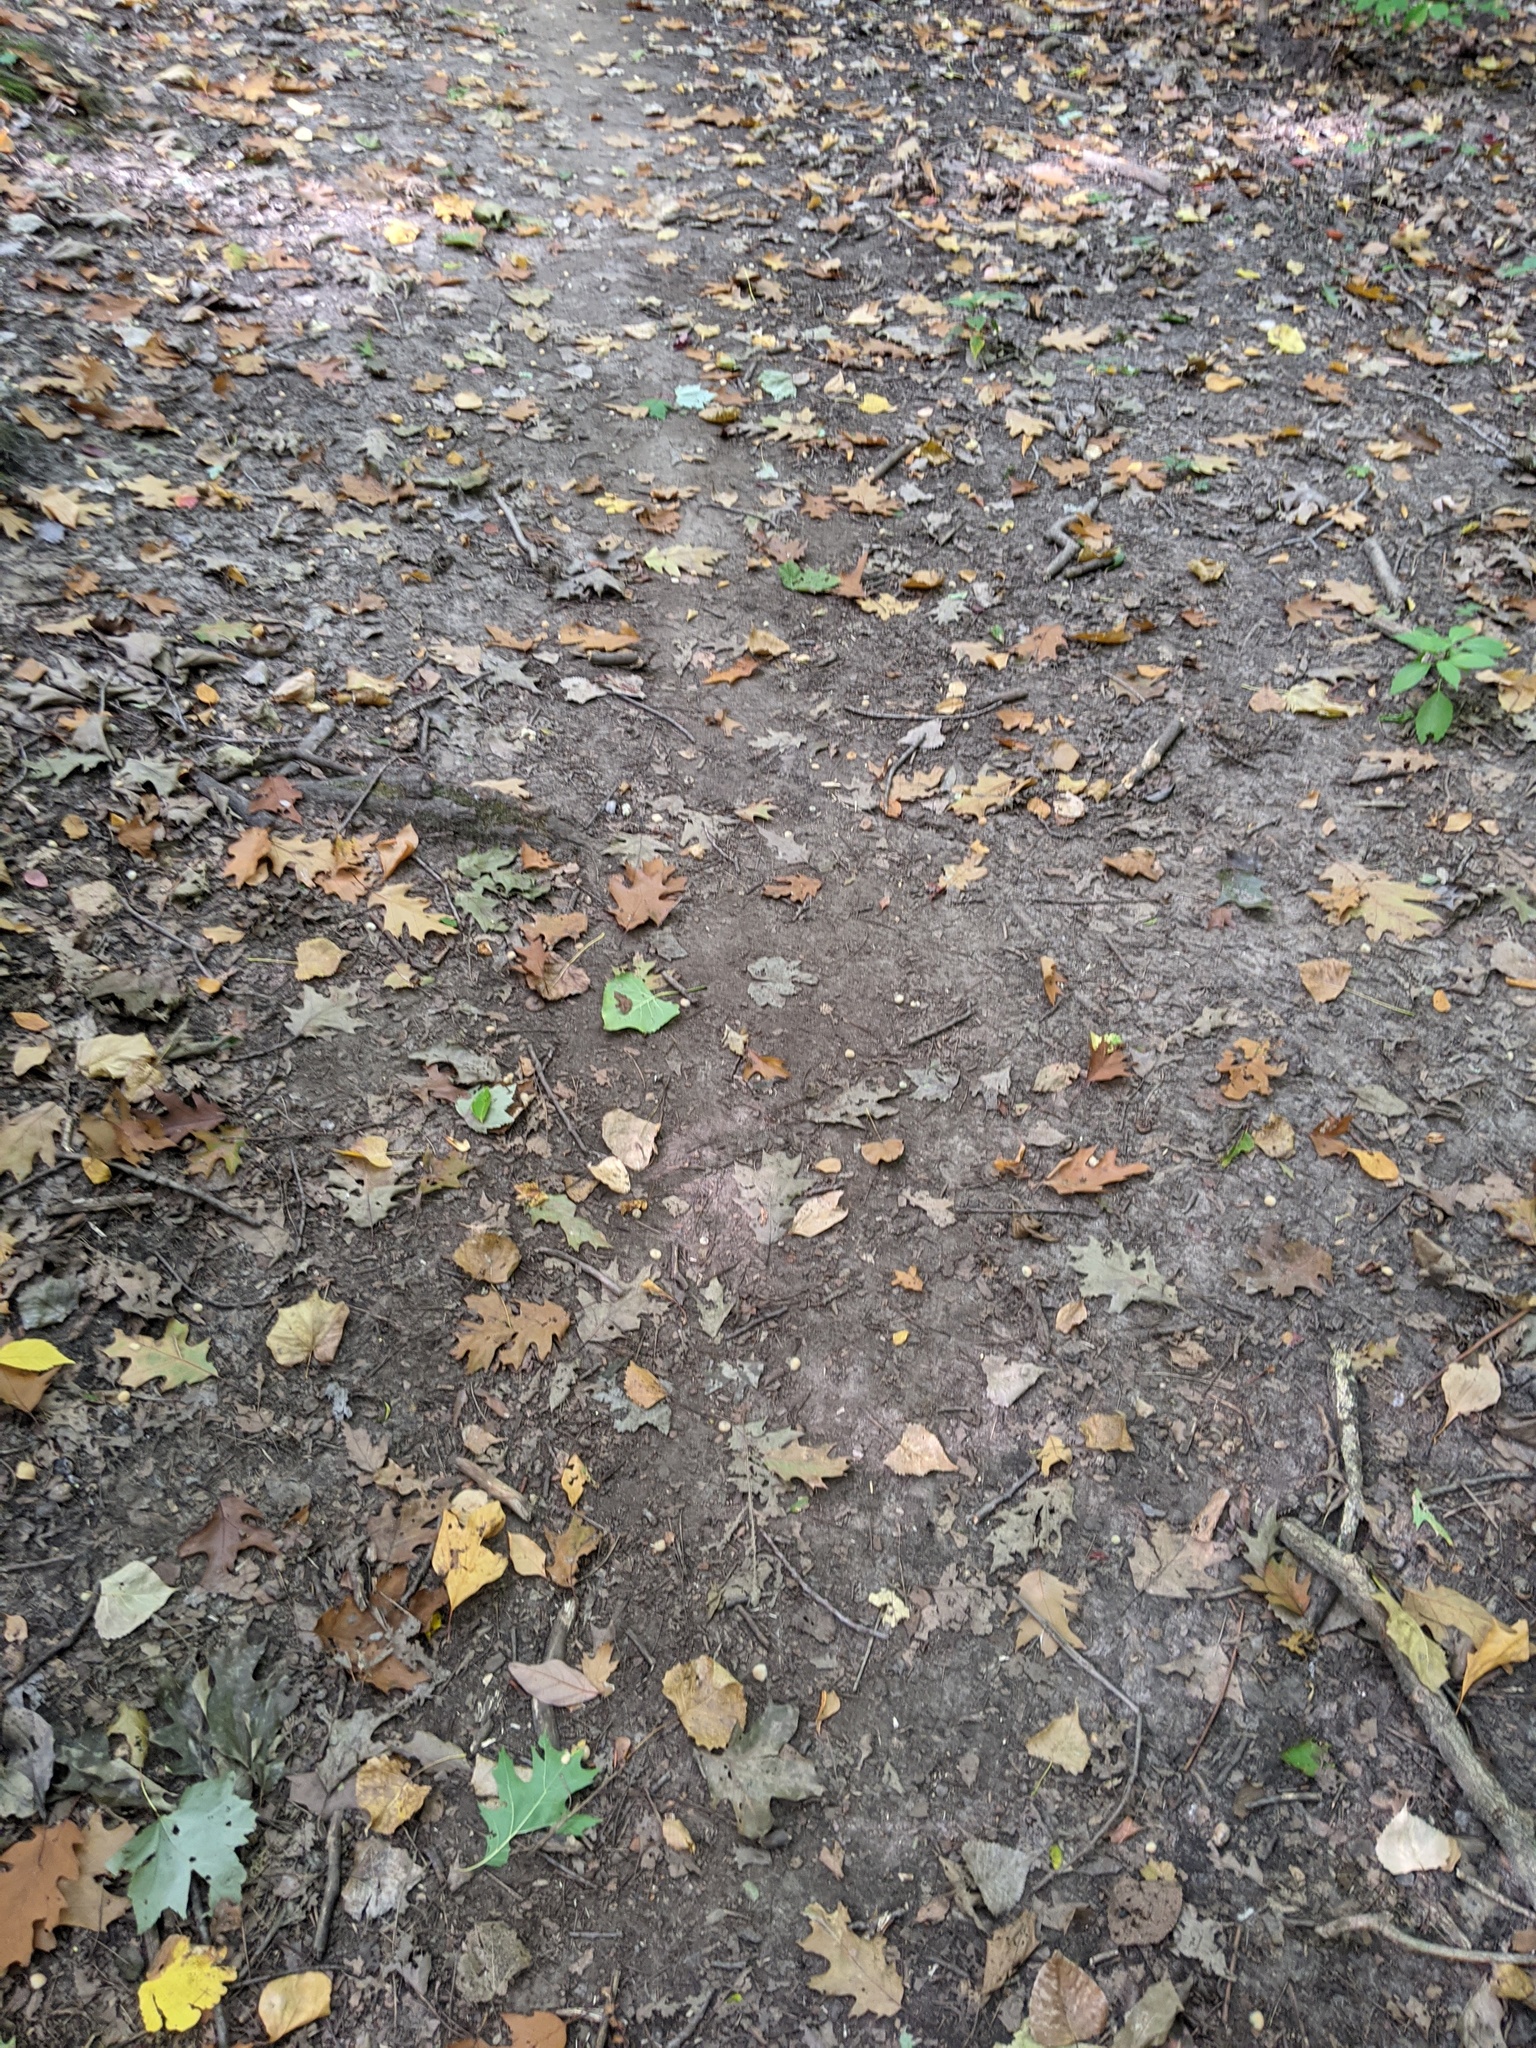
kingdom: Animalia
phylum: Arthropoda
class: Insecta
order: Hymenoptera
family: Cynipidae
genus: Callirhytis
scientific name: Callirhytis
